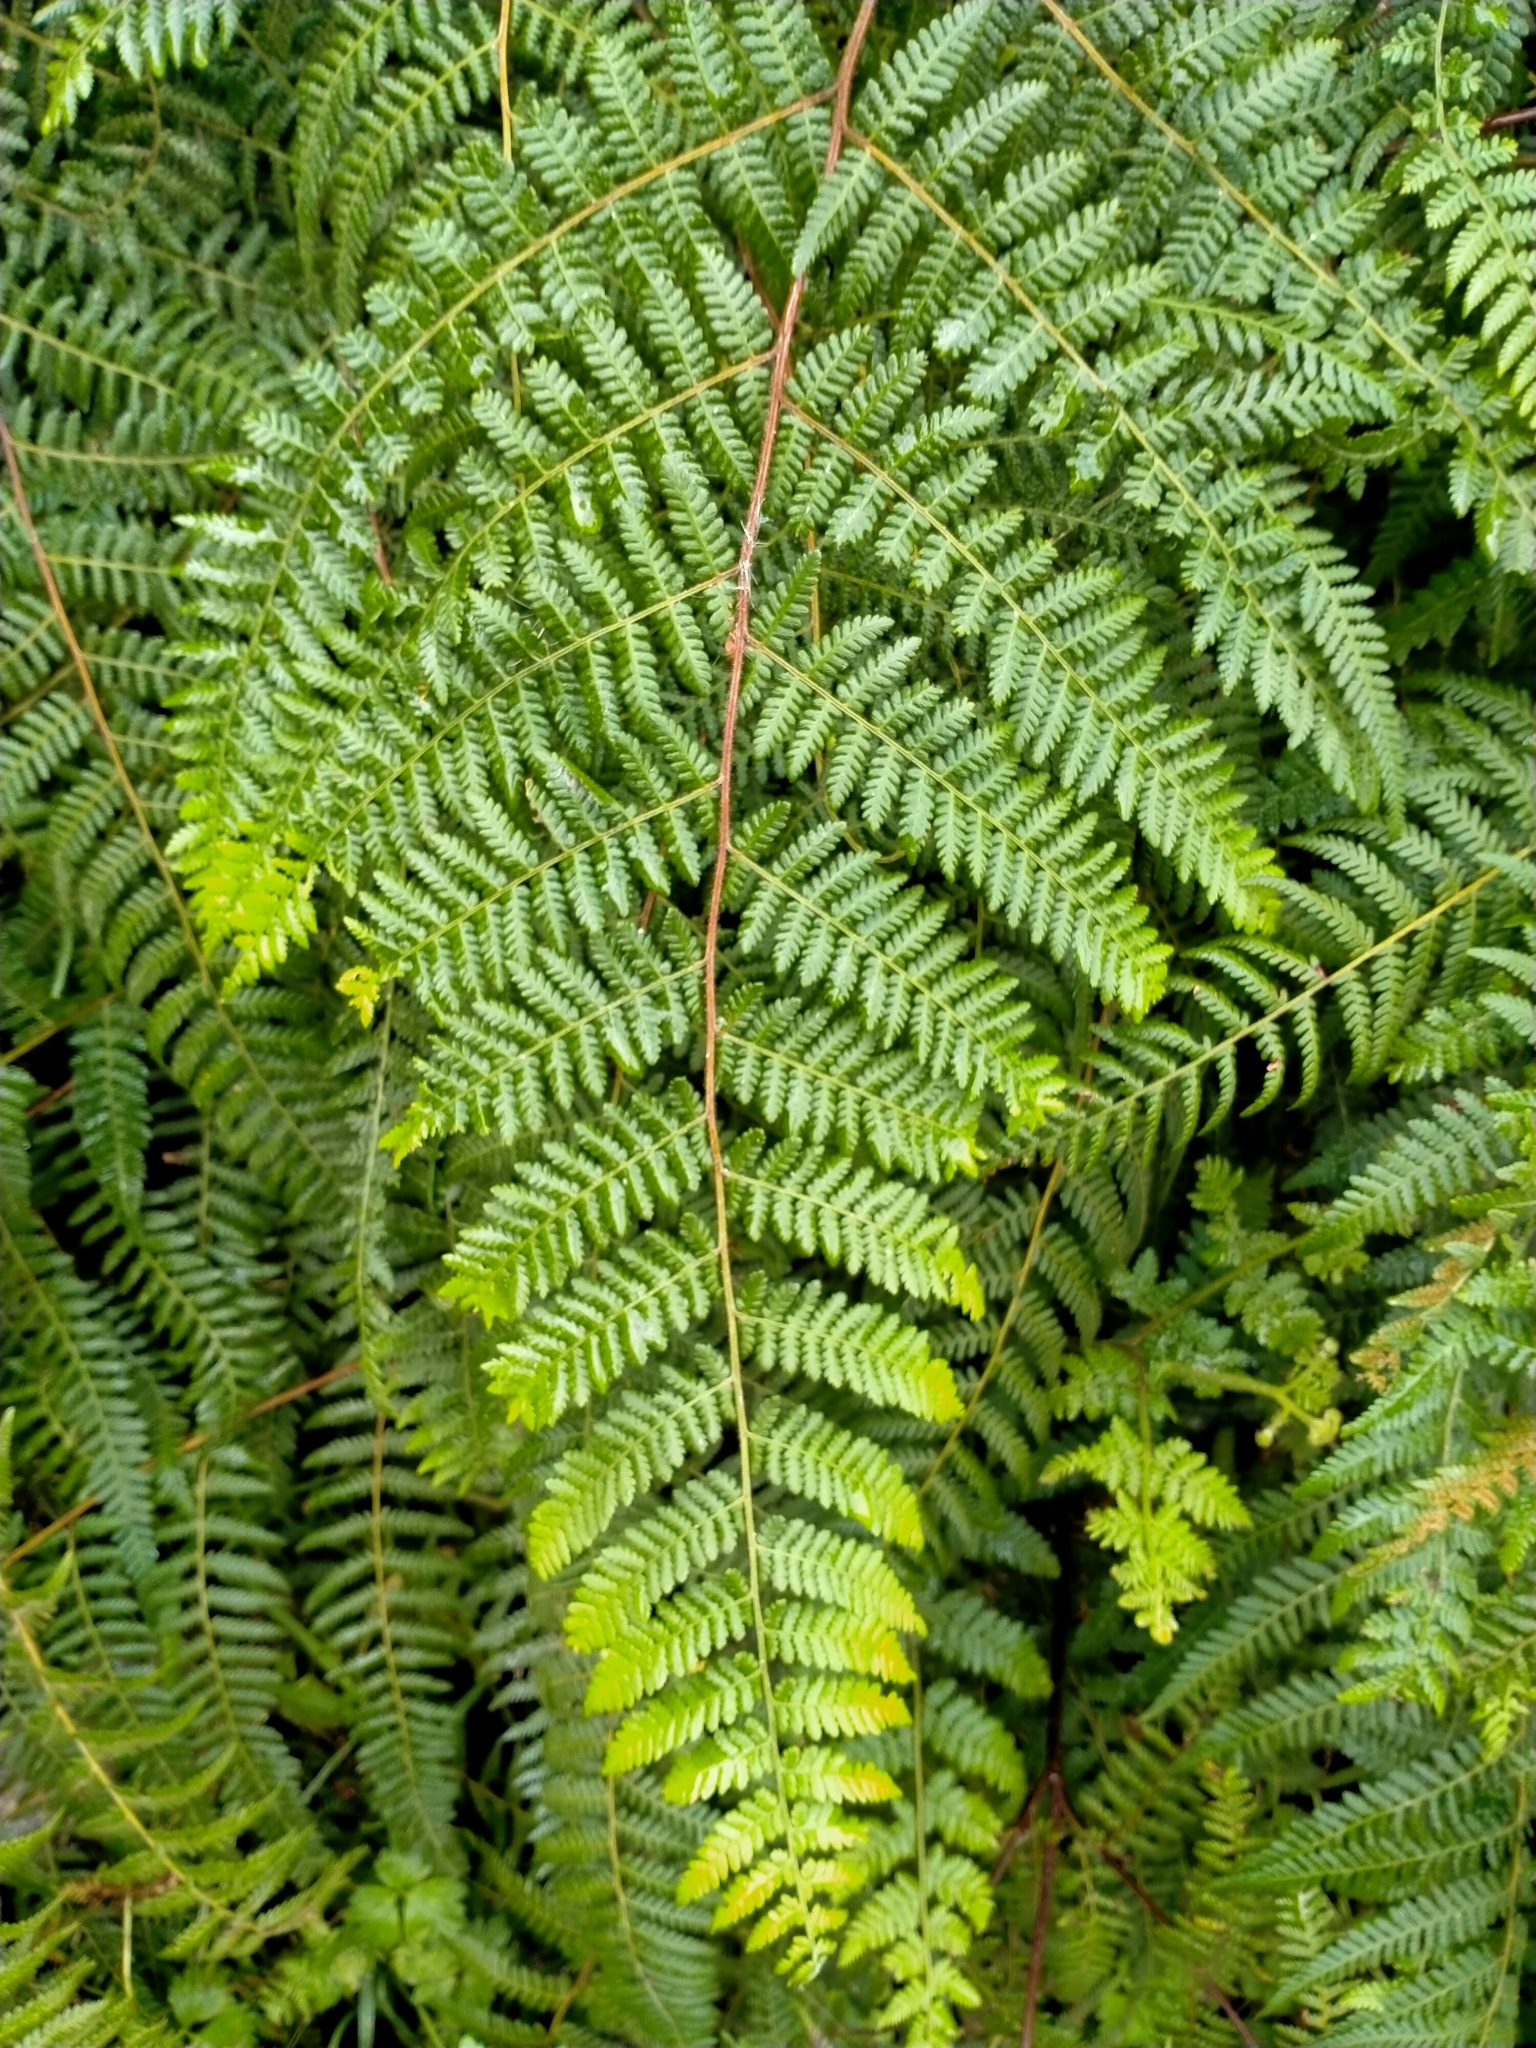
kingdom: Plantae
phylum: Tracheophyta
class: Polypodiopsida
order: Polypodiales
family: Dennstaedtiaceae
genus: Hypolepis
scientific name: Hypolepis ambigua
